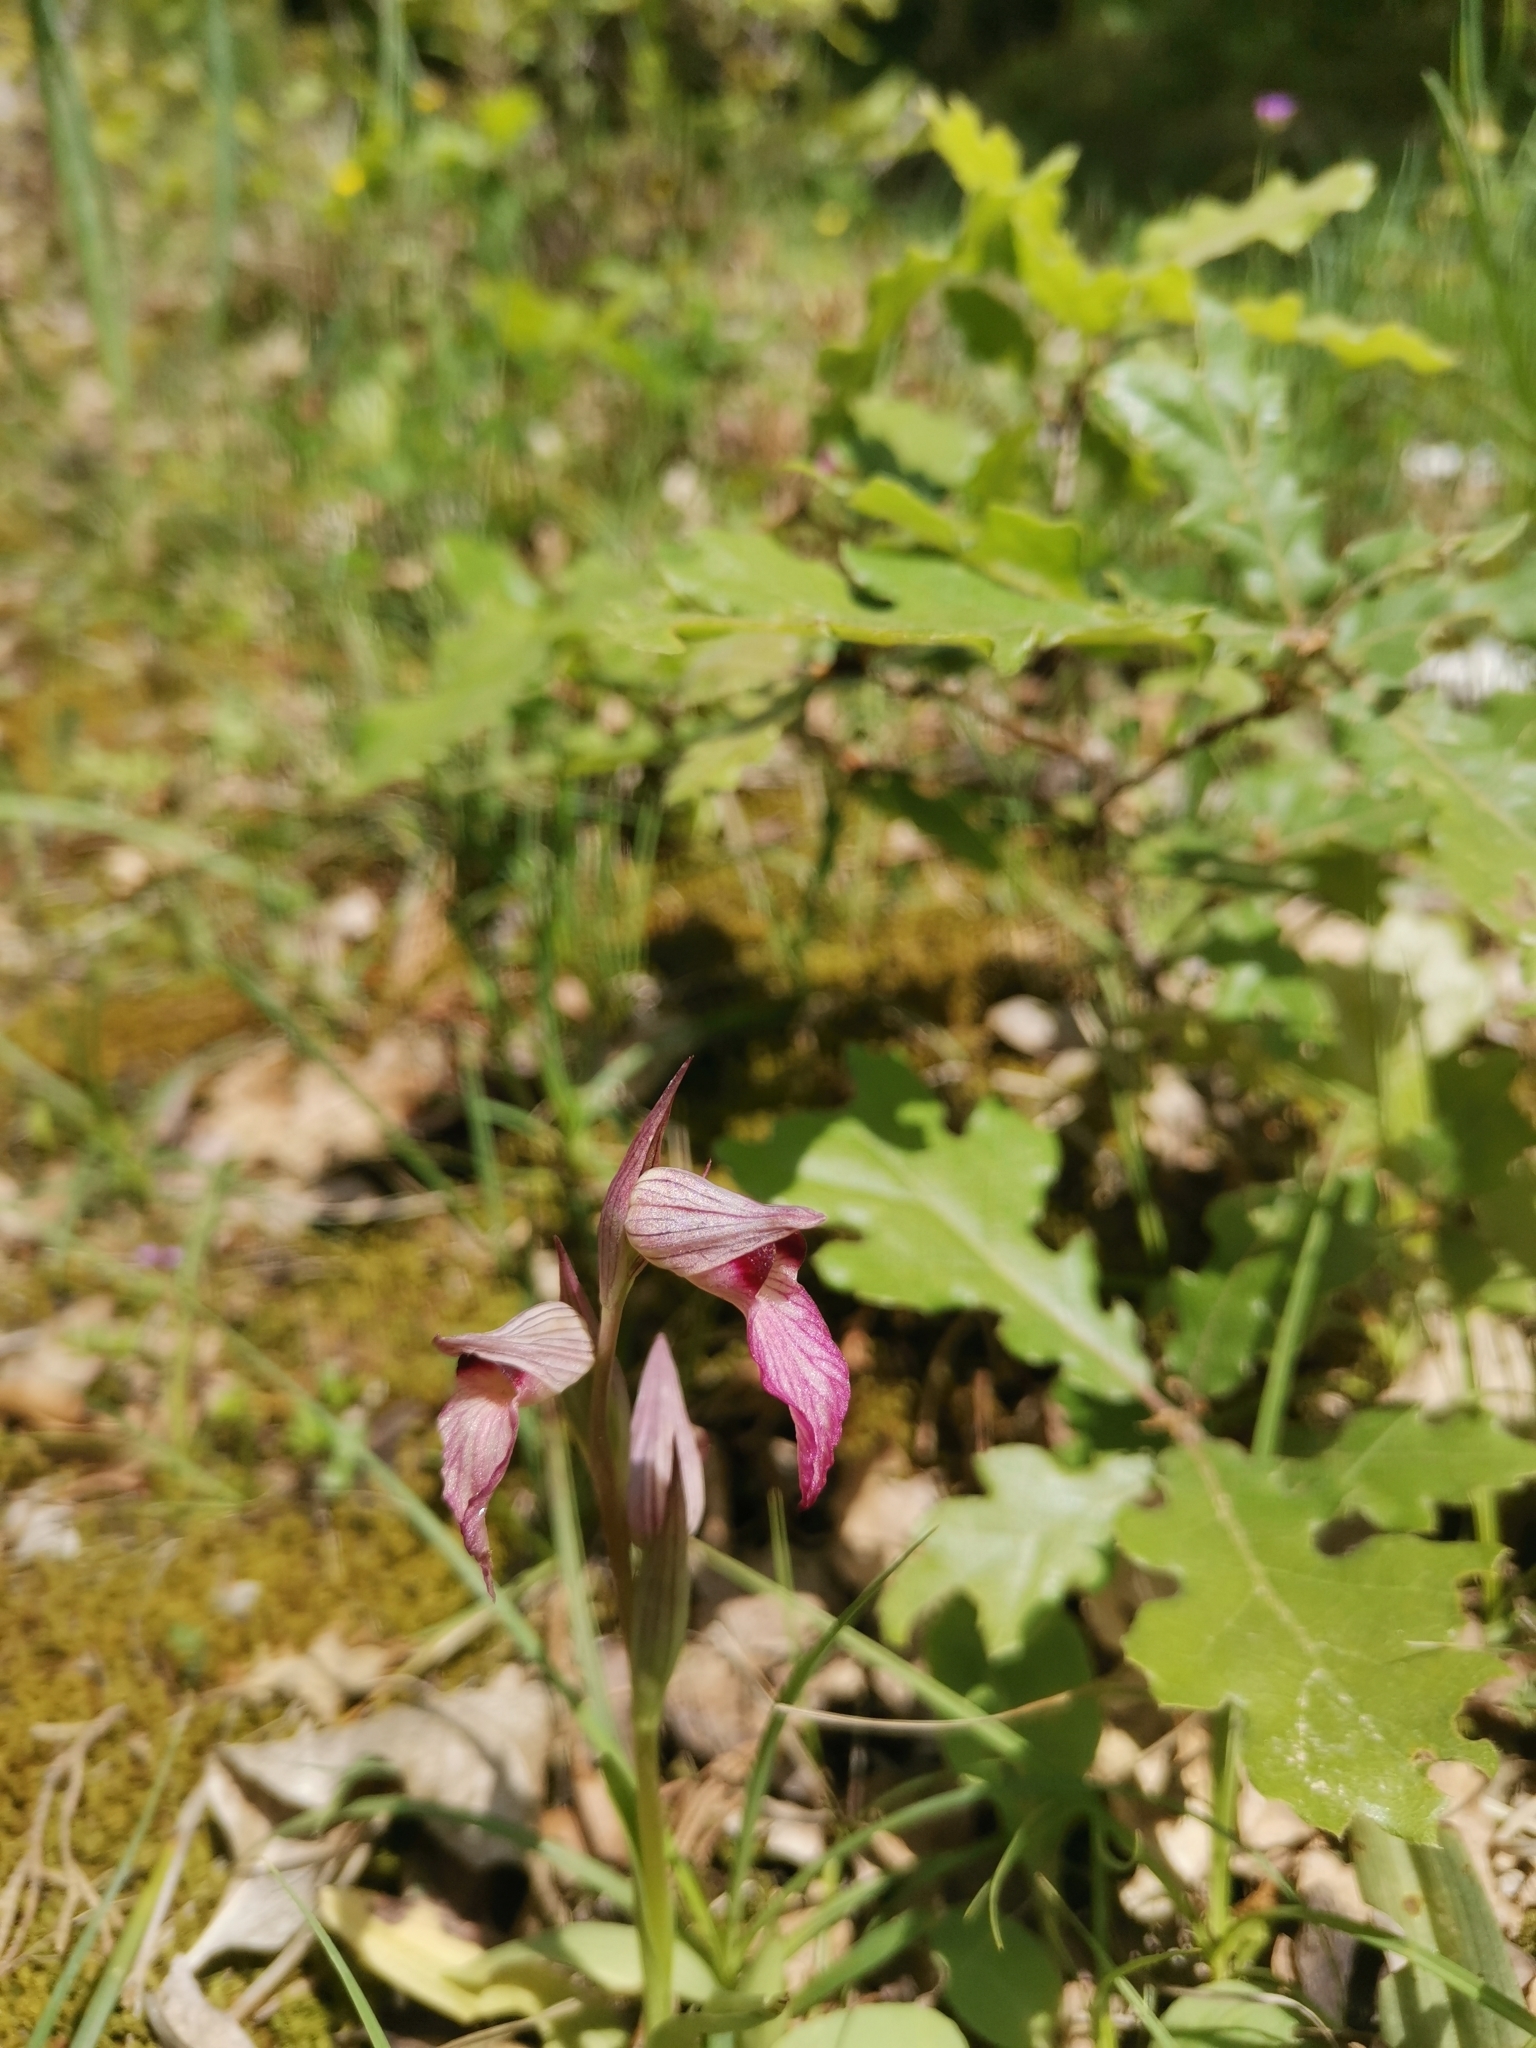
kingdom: Plantae
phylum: Tracheophyta
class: Liliopsida
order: Asparagales
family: Orchidaceae
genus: Serapias
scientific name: Serapias lingua
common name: Tongue-orchid
